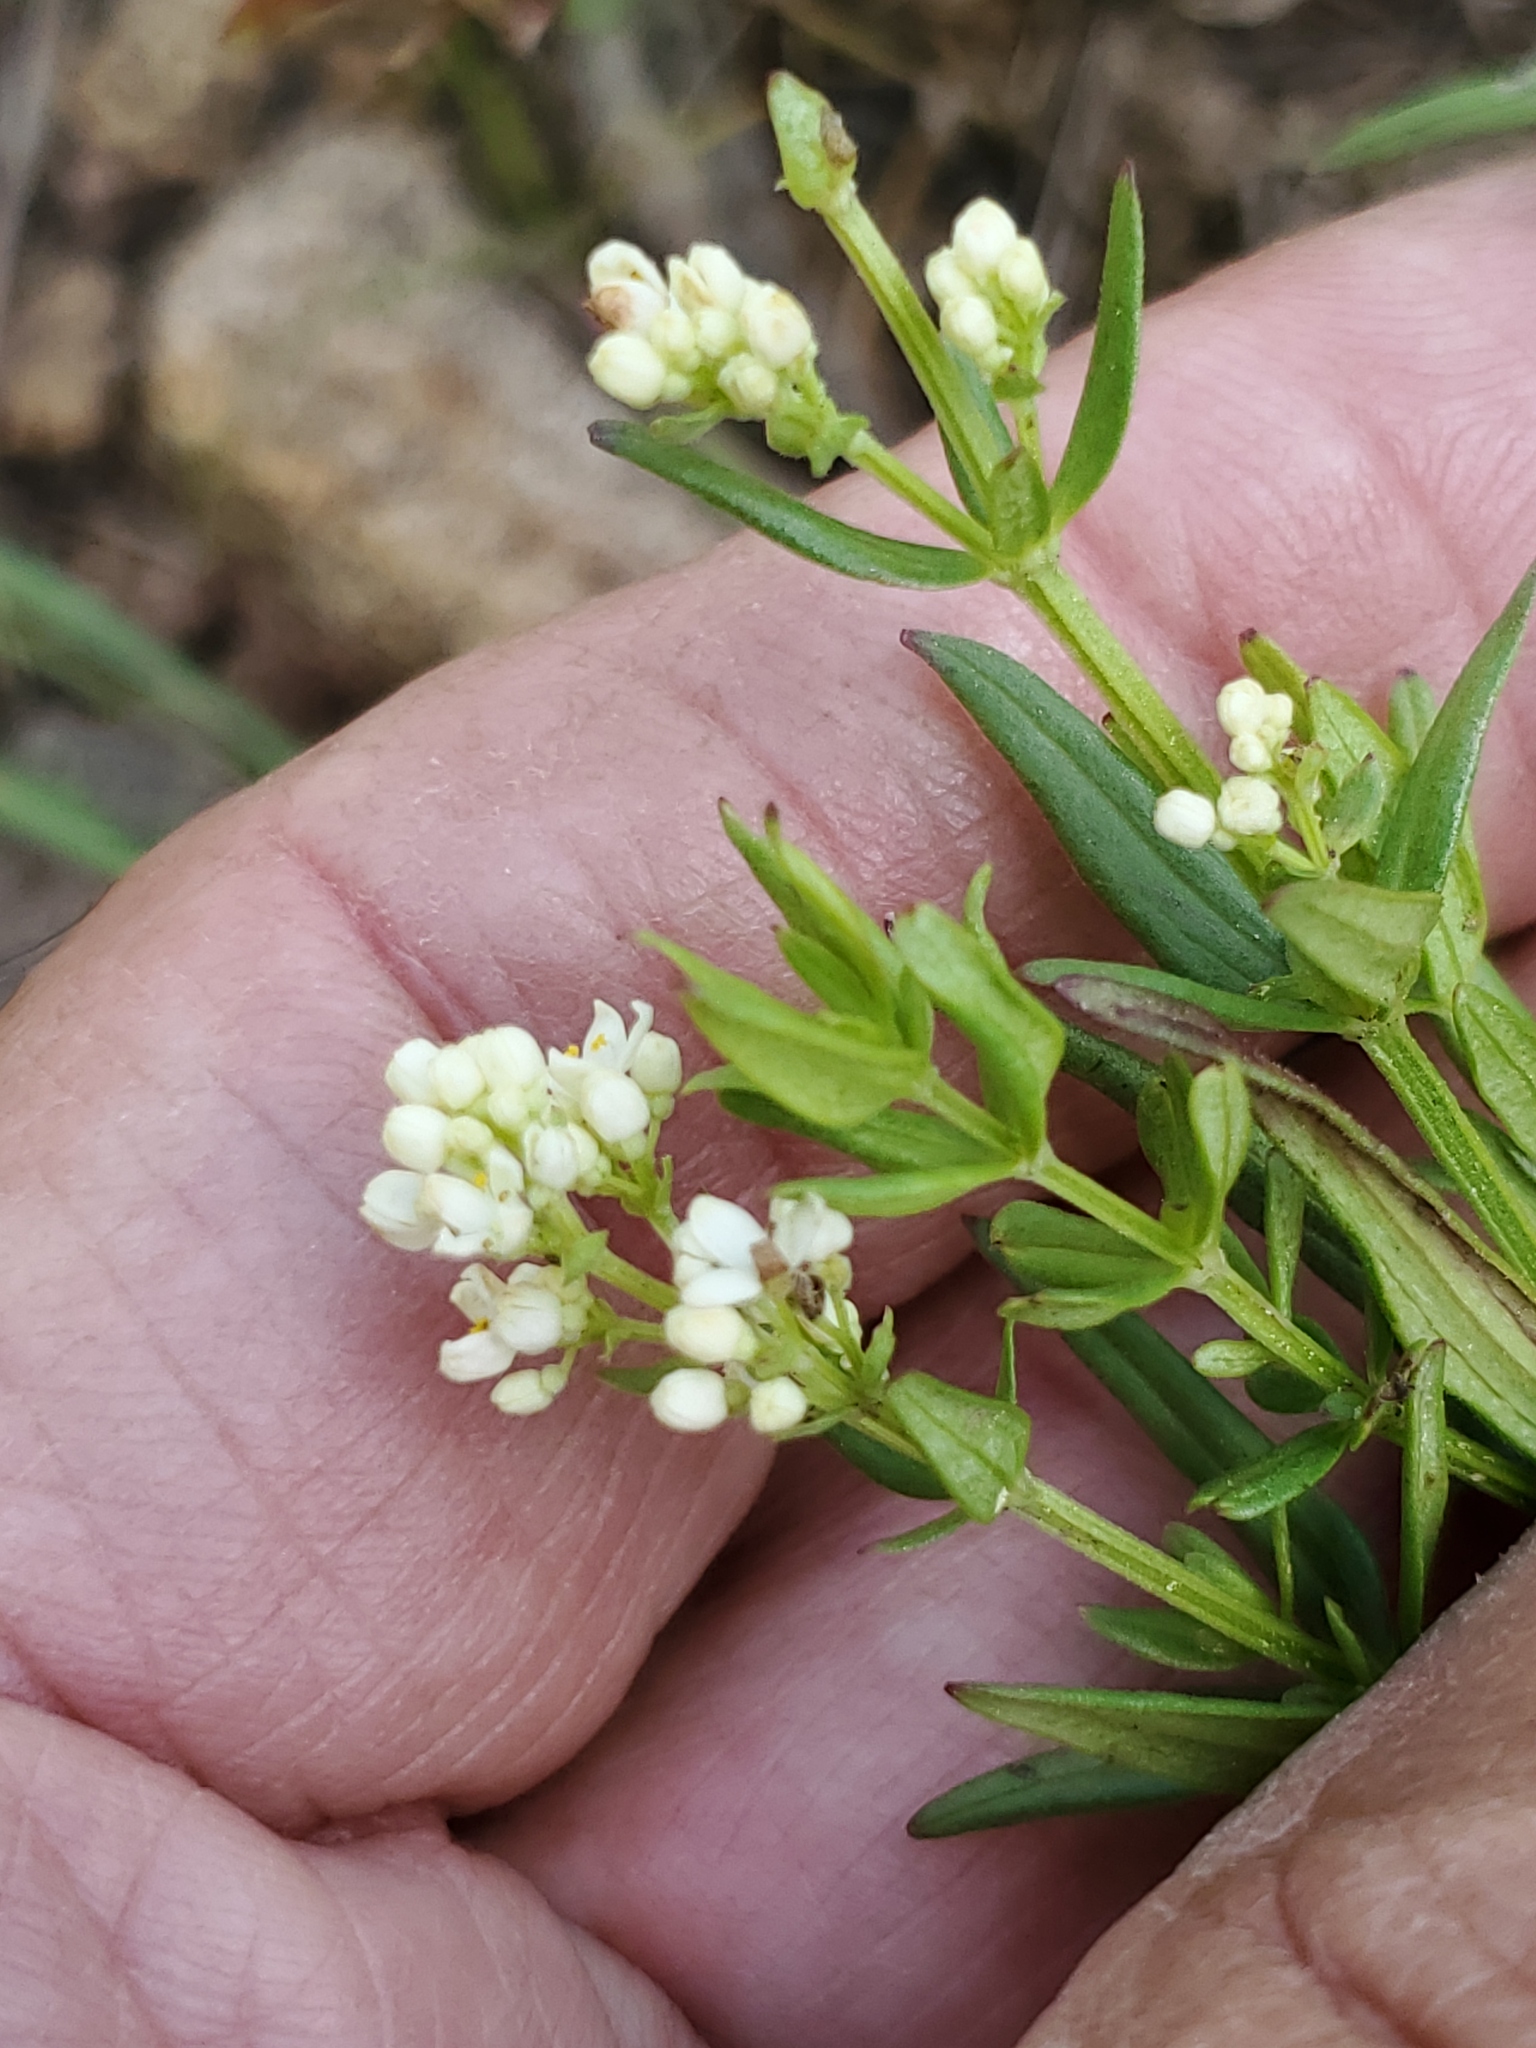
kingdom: Plantae
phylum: Tracheophyta
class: Magnoliopsida
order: Gentianales
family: Rubiaceae
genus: Galium
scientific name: Galium boreale
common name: Northern bedstraw
